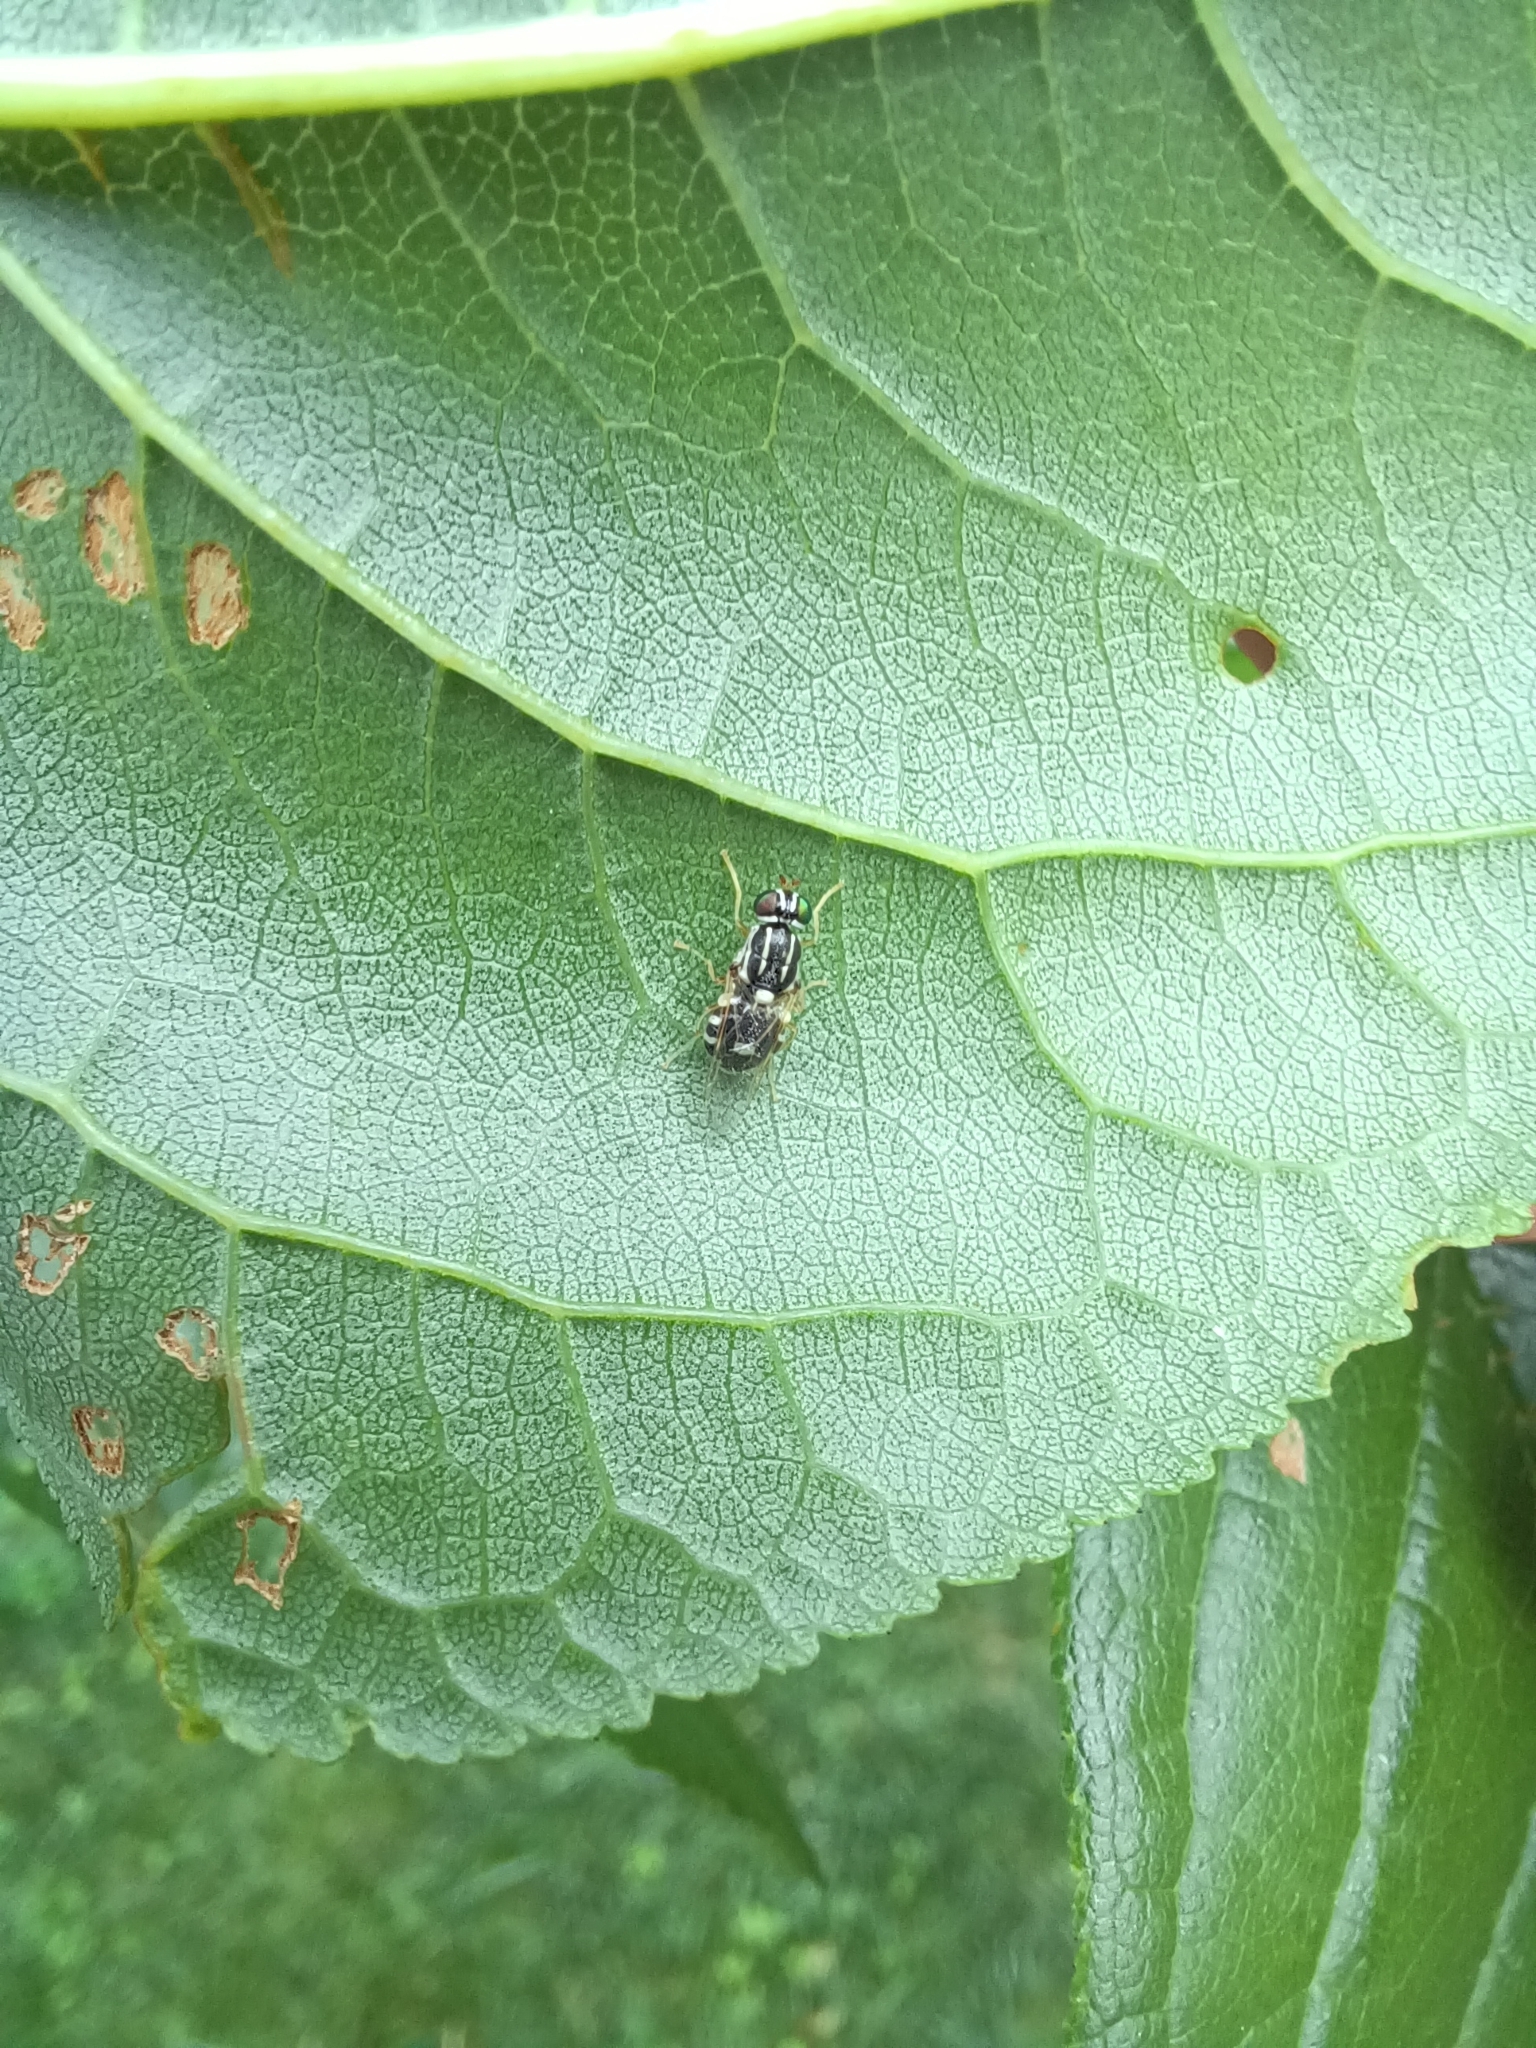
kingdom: Animalia
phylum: Arthropoda
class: Insecta
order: Diptera
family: Stratiomyidae
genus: Oxycera
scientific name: Oxycera albovittata
